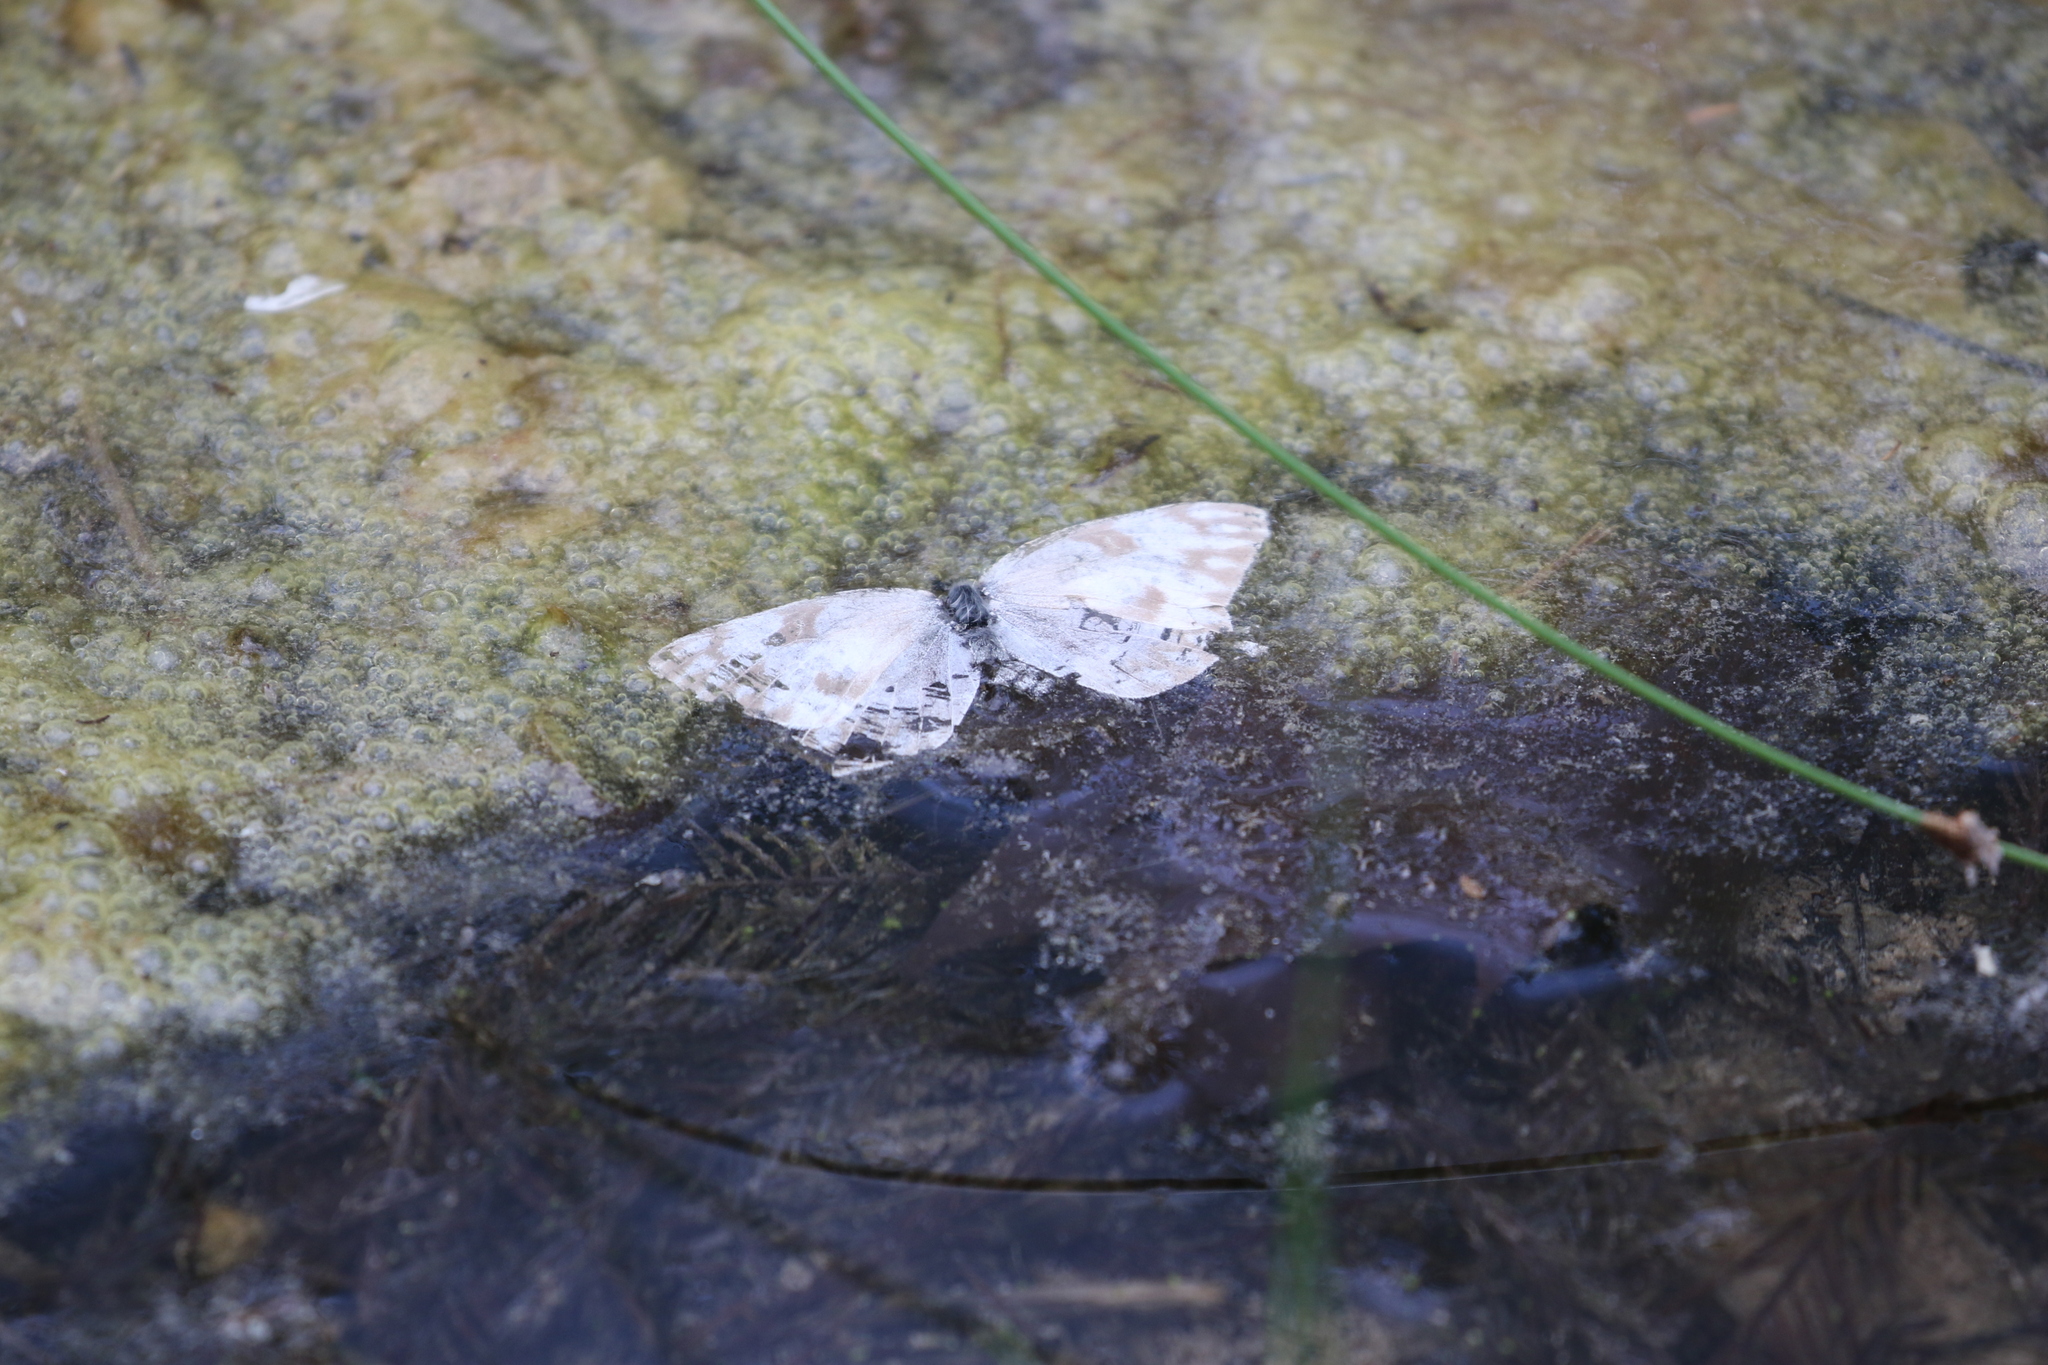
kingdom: Animalia
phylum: Arthropoda
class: Insecta
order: Lepidoptera
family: Pieridae
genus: Pontia
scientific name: Pontia protodice
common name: Checkered white
